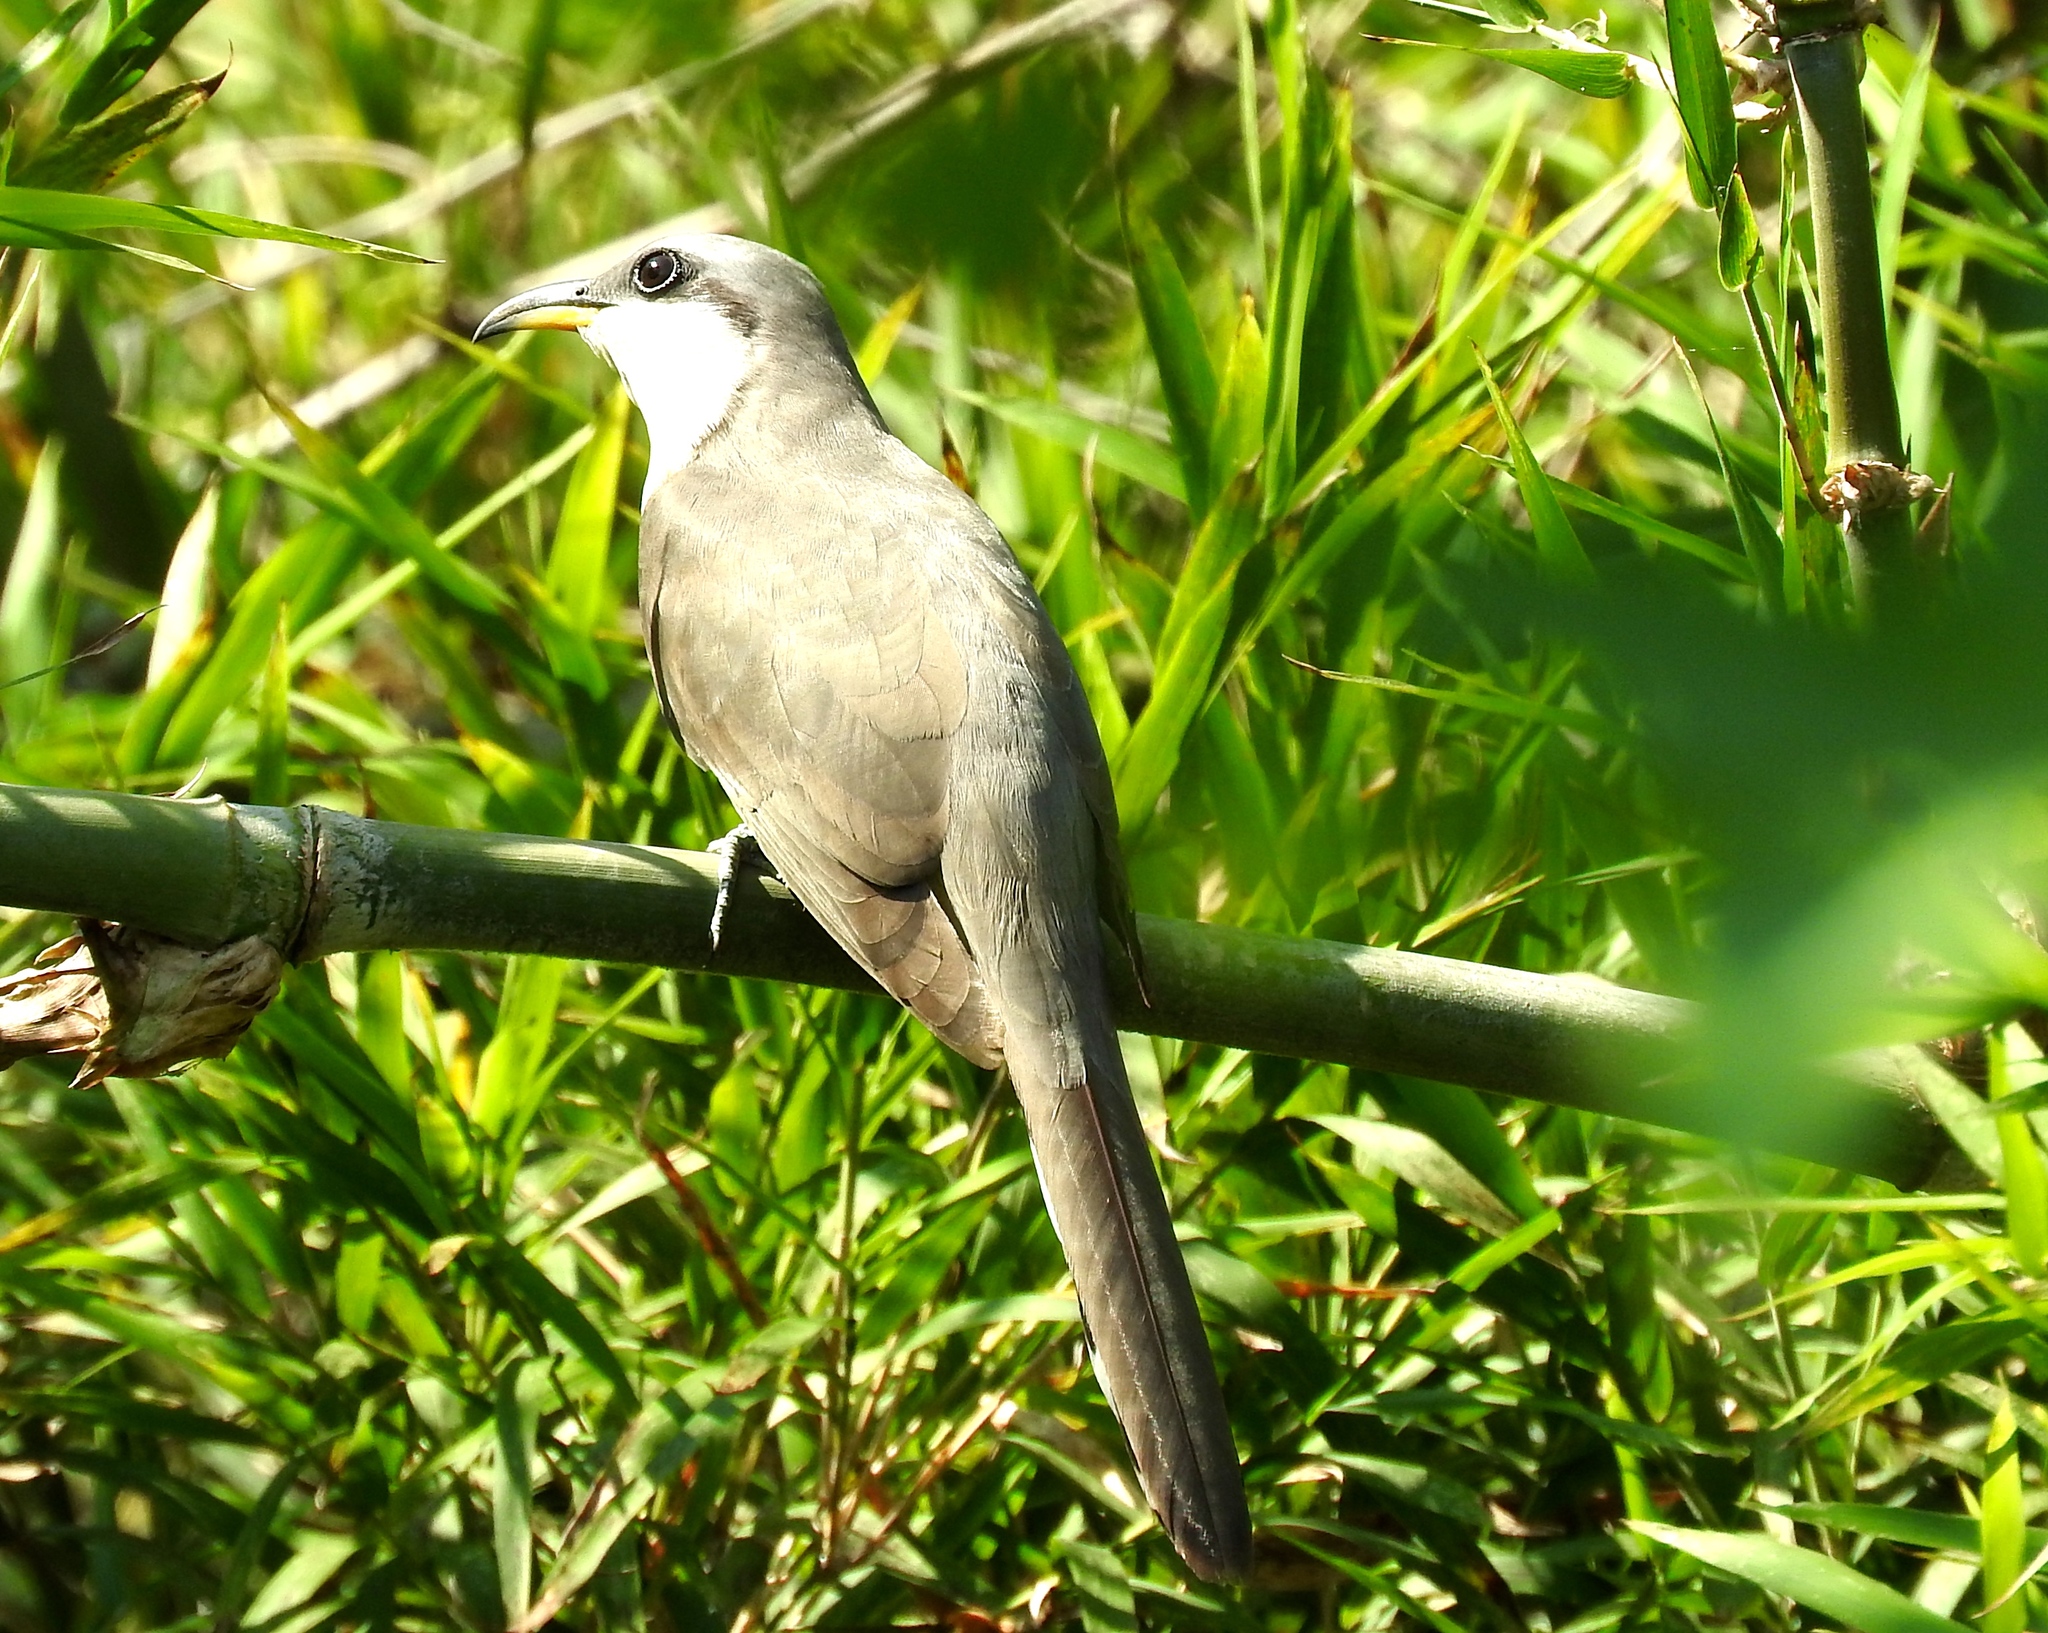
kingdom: Animalia
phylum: Chordata
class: Aves
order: Cuculiformes
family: Cuculidae
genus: Coccyzus
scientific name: Coccyzus minor
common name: Mangrove cuckoo
